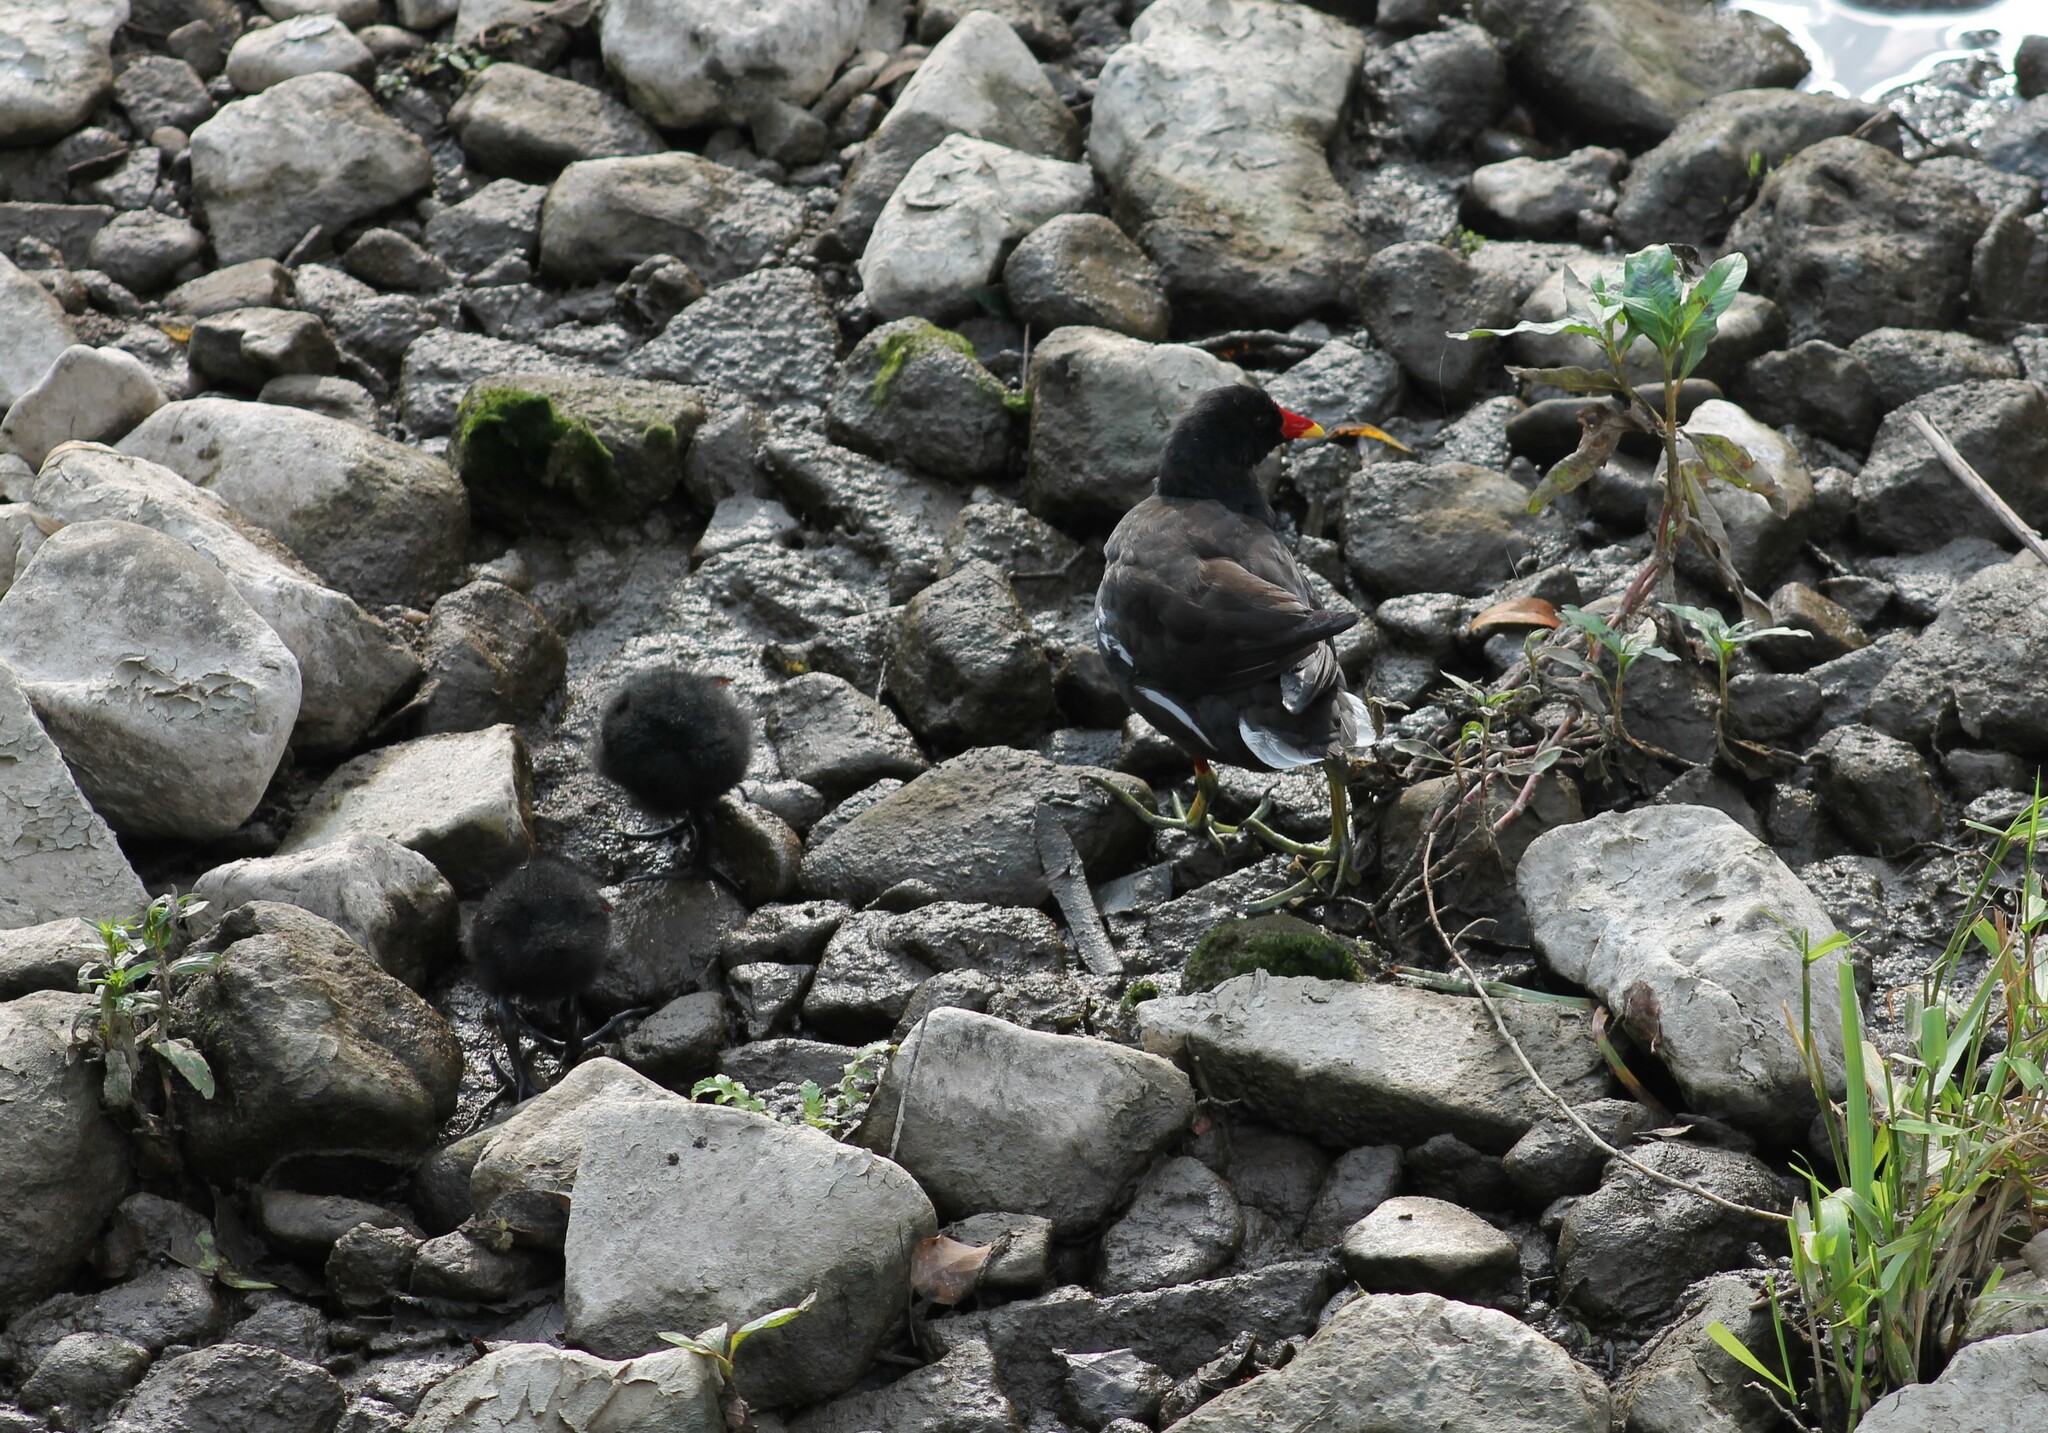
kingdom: Animalia
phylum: Chordata
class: Aves
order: Gruiformes
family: Rallidae
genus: Gallinula
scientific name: Gallinula chloropus
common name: Common moorhen
